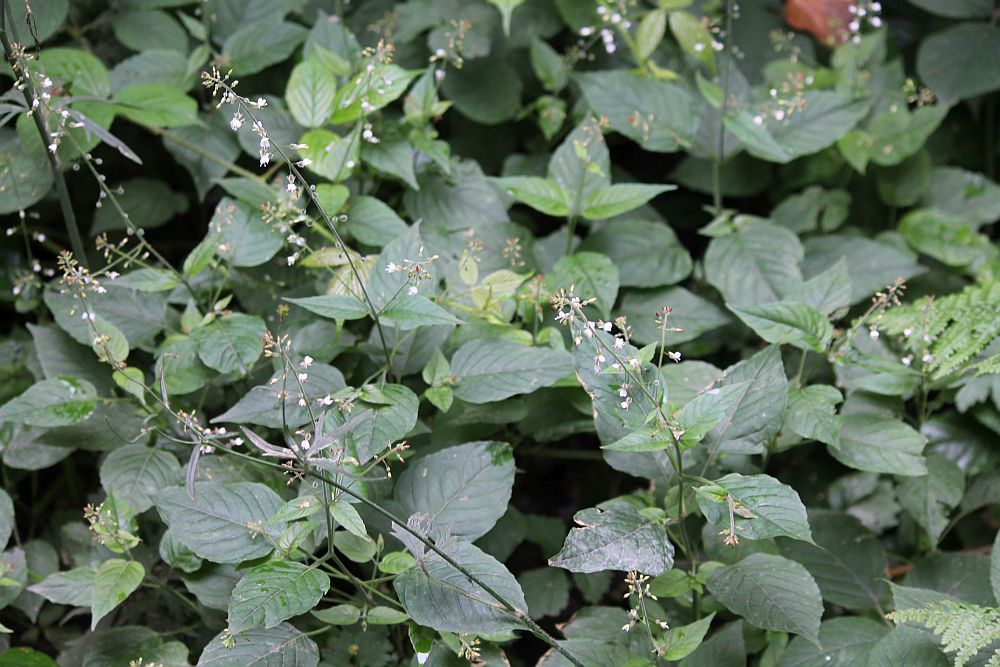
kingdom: Plantae
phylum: Tracheophyta
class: Magnoliopsida
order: Myrtales
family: Onagraceae
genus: Circaea
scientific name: Circaea lutetiana
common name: Enchanter's-nightshade
